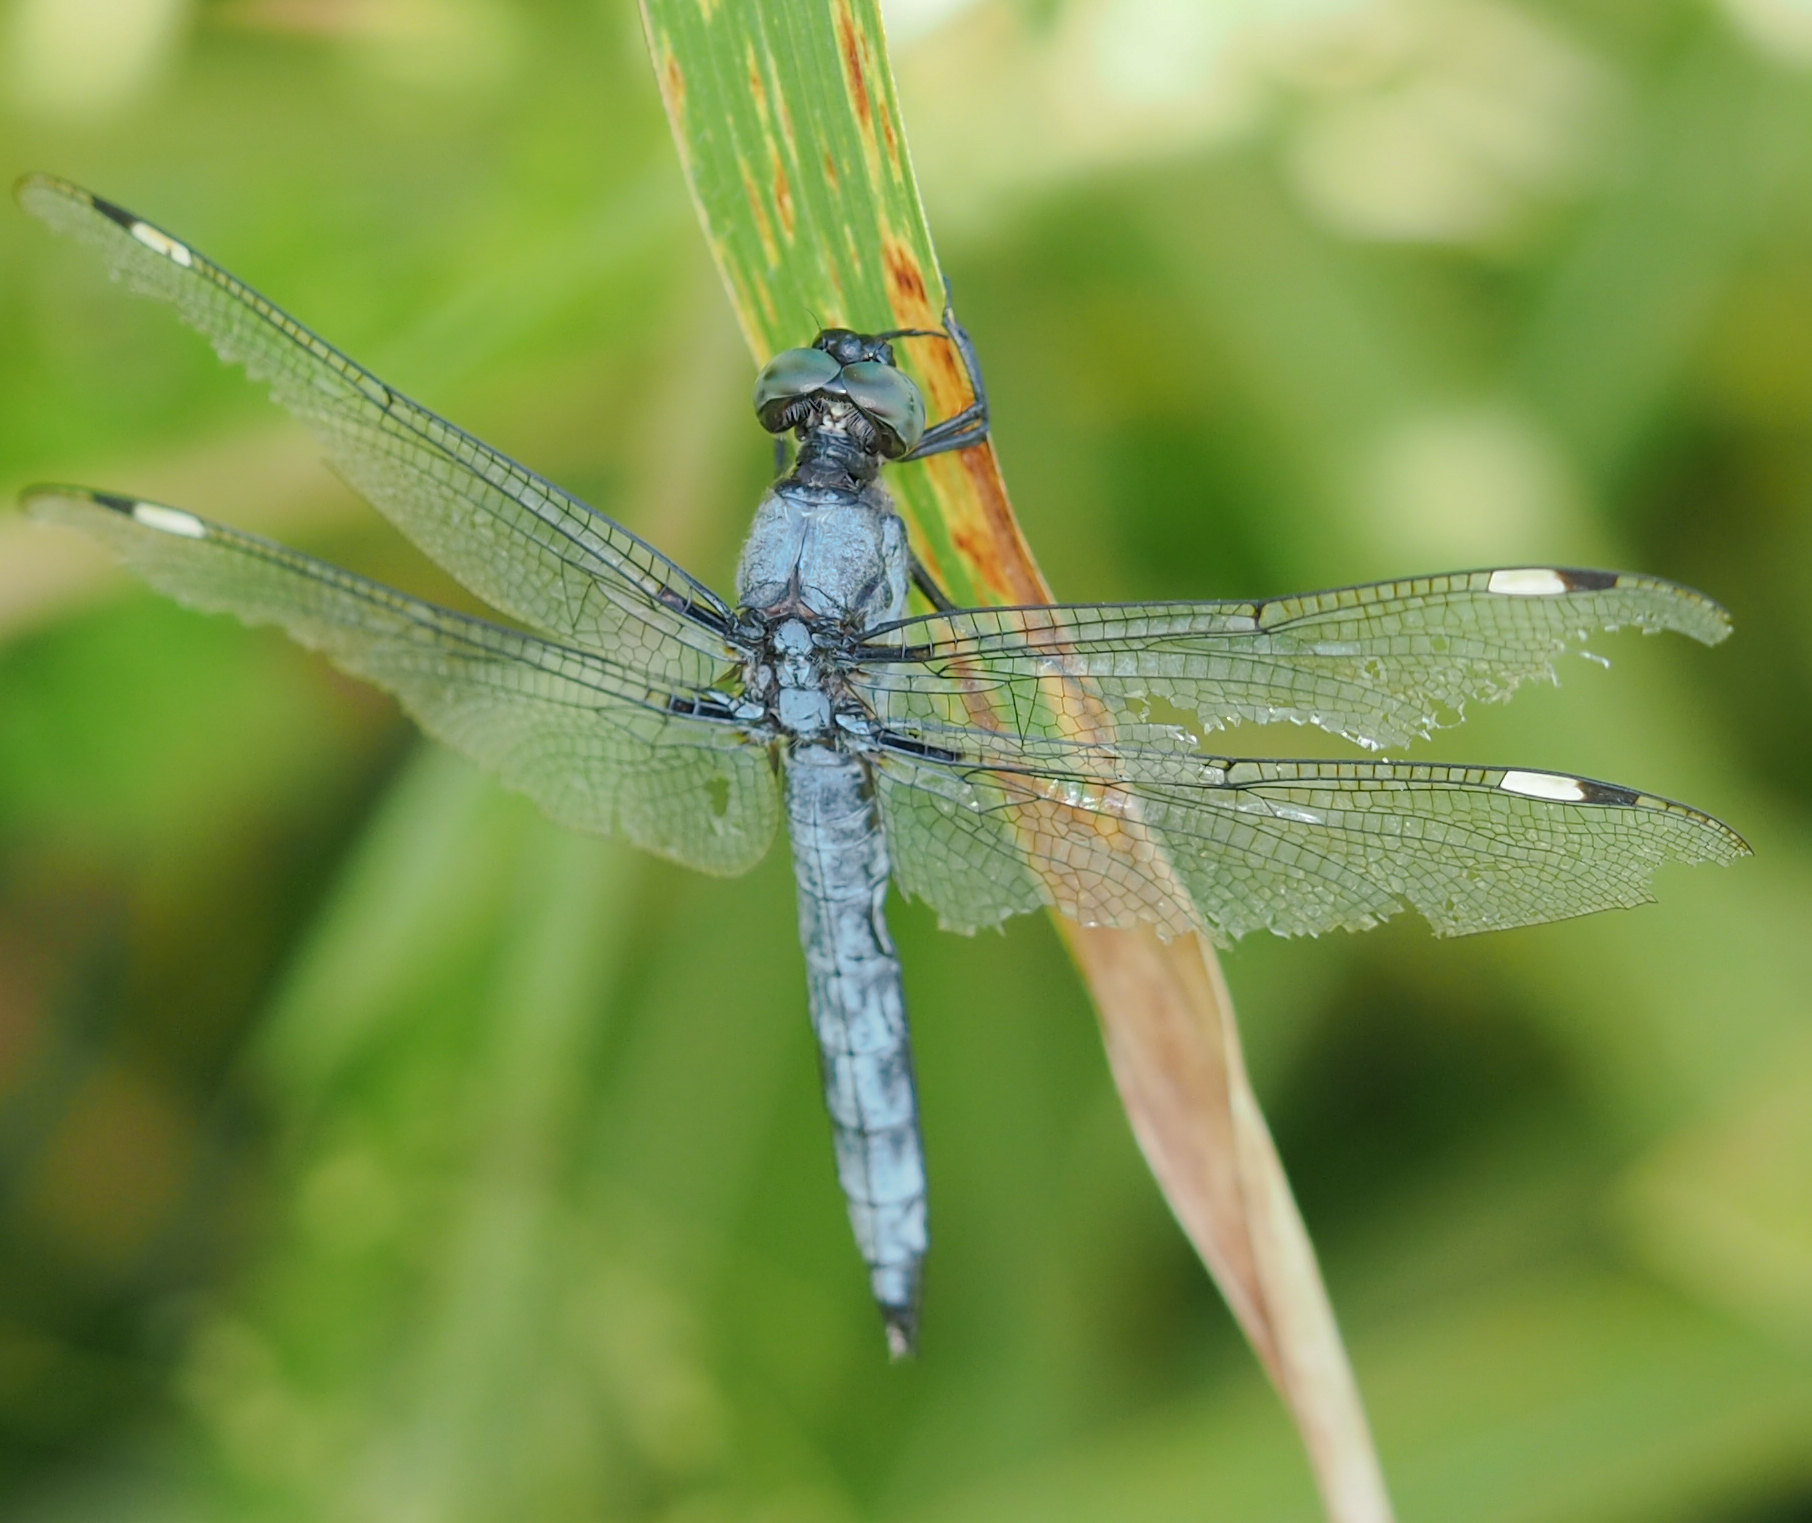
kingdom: Animalia
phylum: Arthropoda
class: Insecta
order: Odonata
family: Libellulidae
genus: Libellula
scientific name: Libellula cyanea
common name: Spangled skimmer
